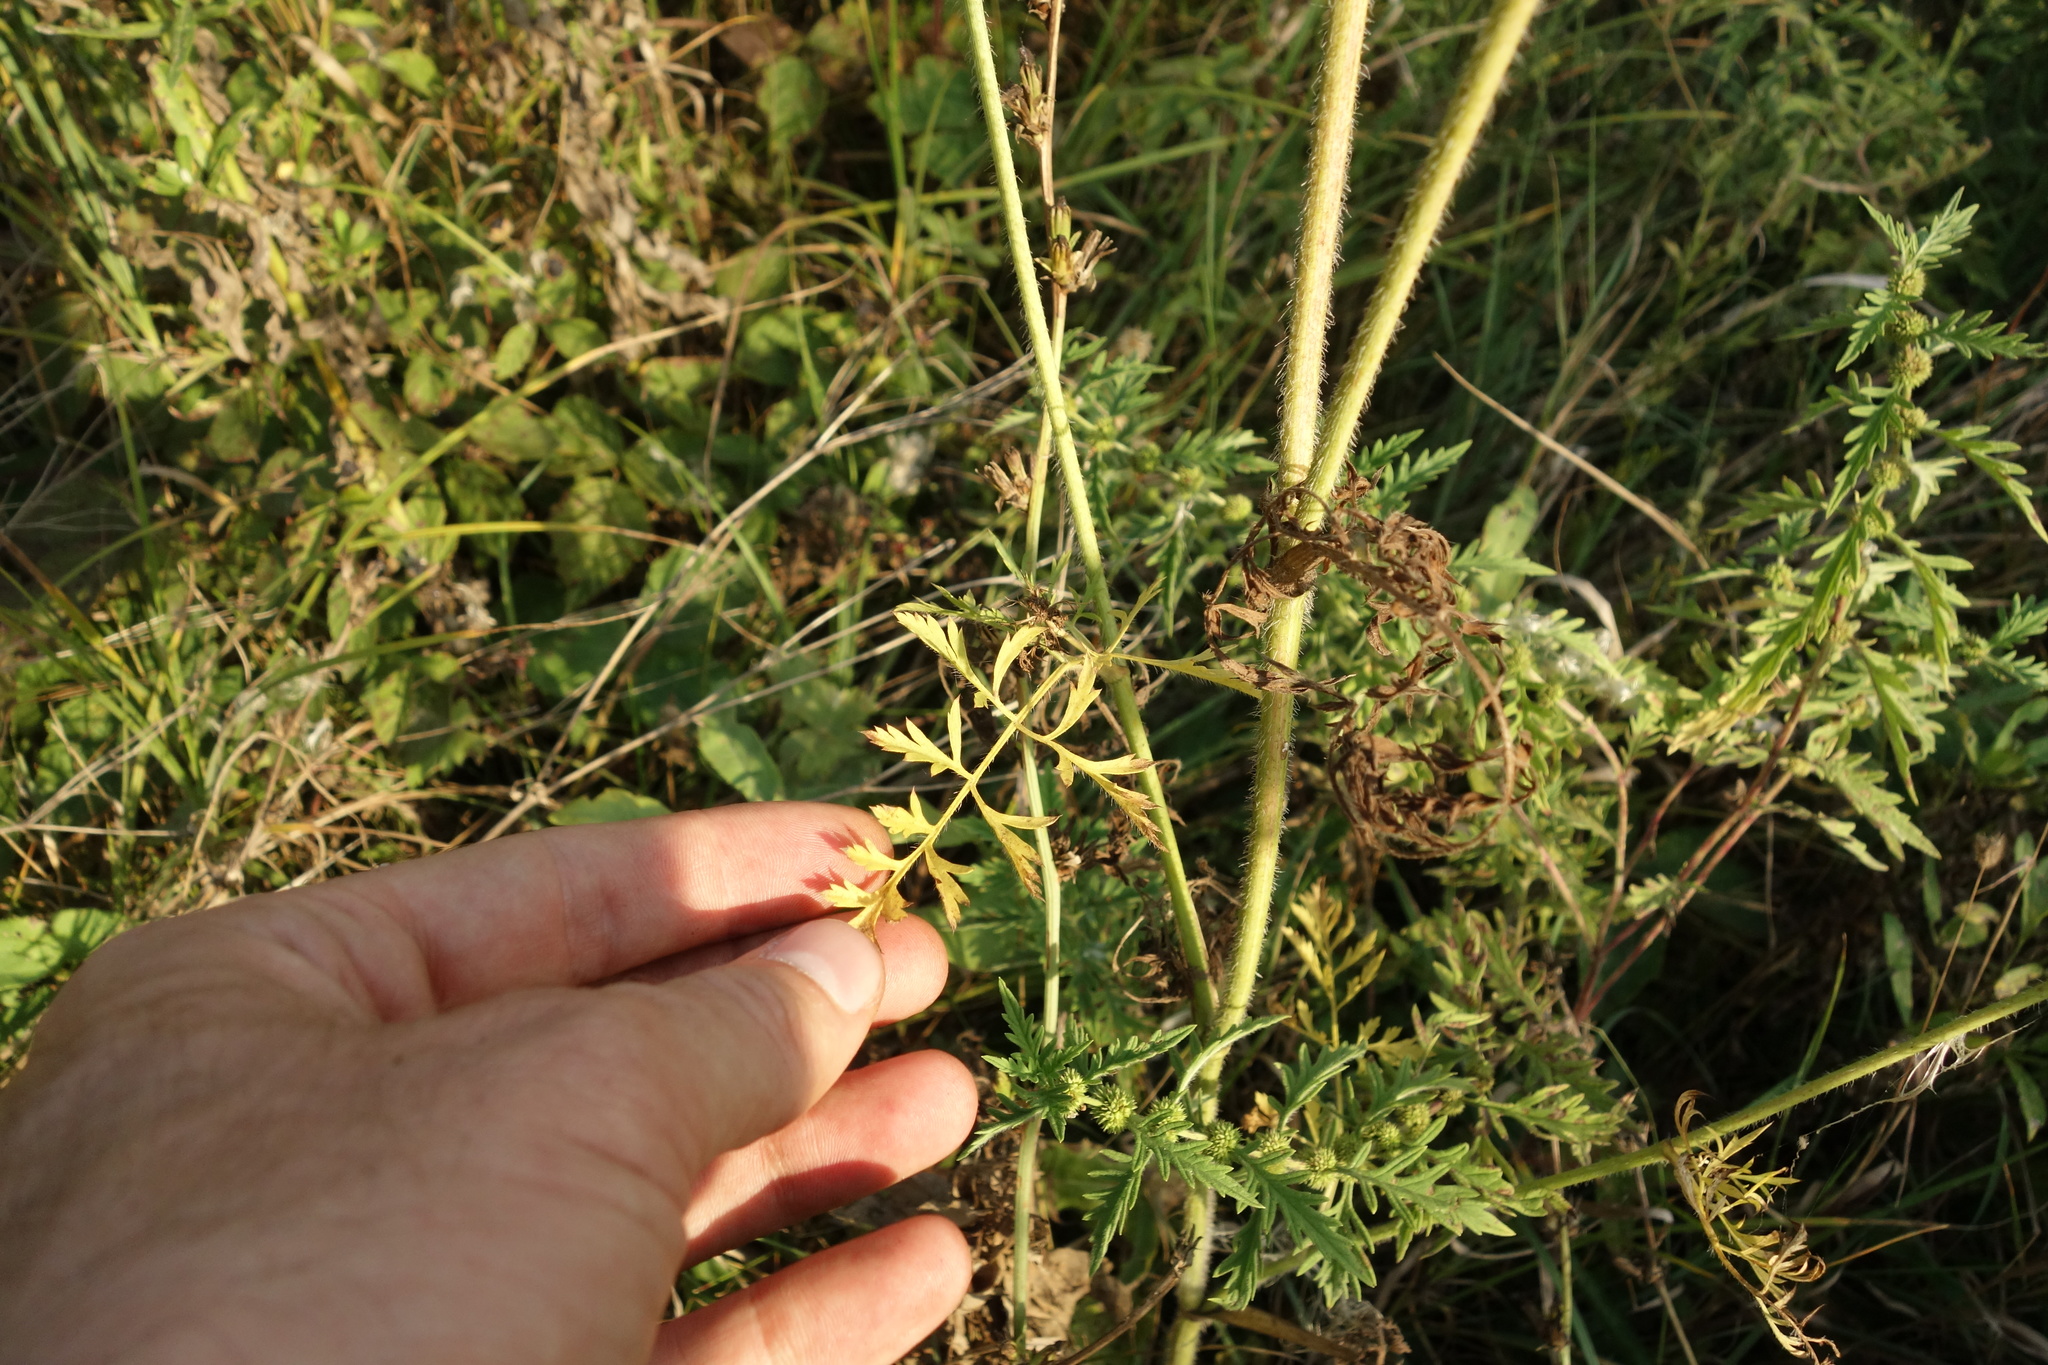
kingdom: Plantae
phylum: Tracheophyta
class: Magnoliopsida
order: Apiales
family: Apiaceae
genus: Daucus
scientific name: Daucus carota
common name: Wild carrot
